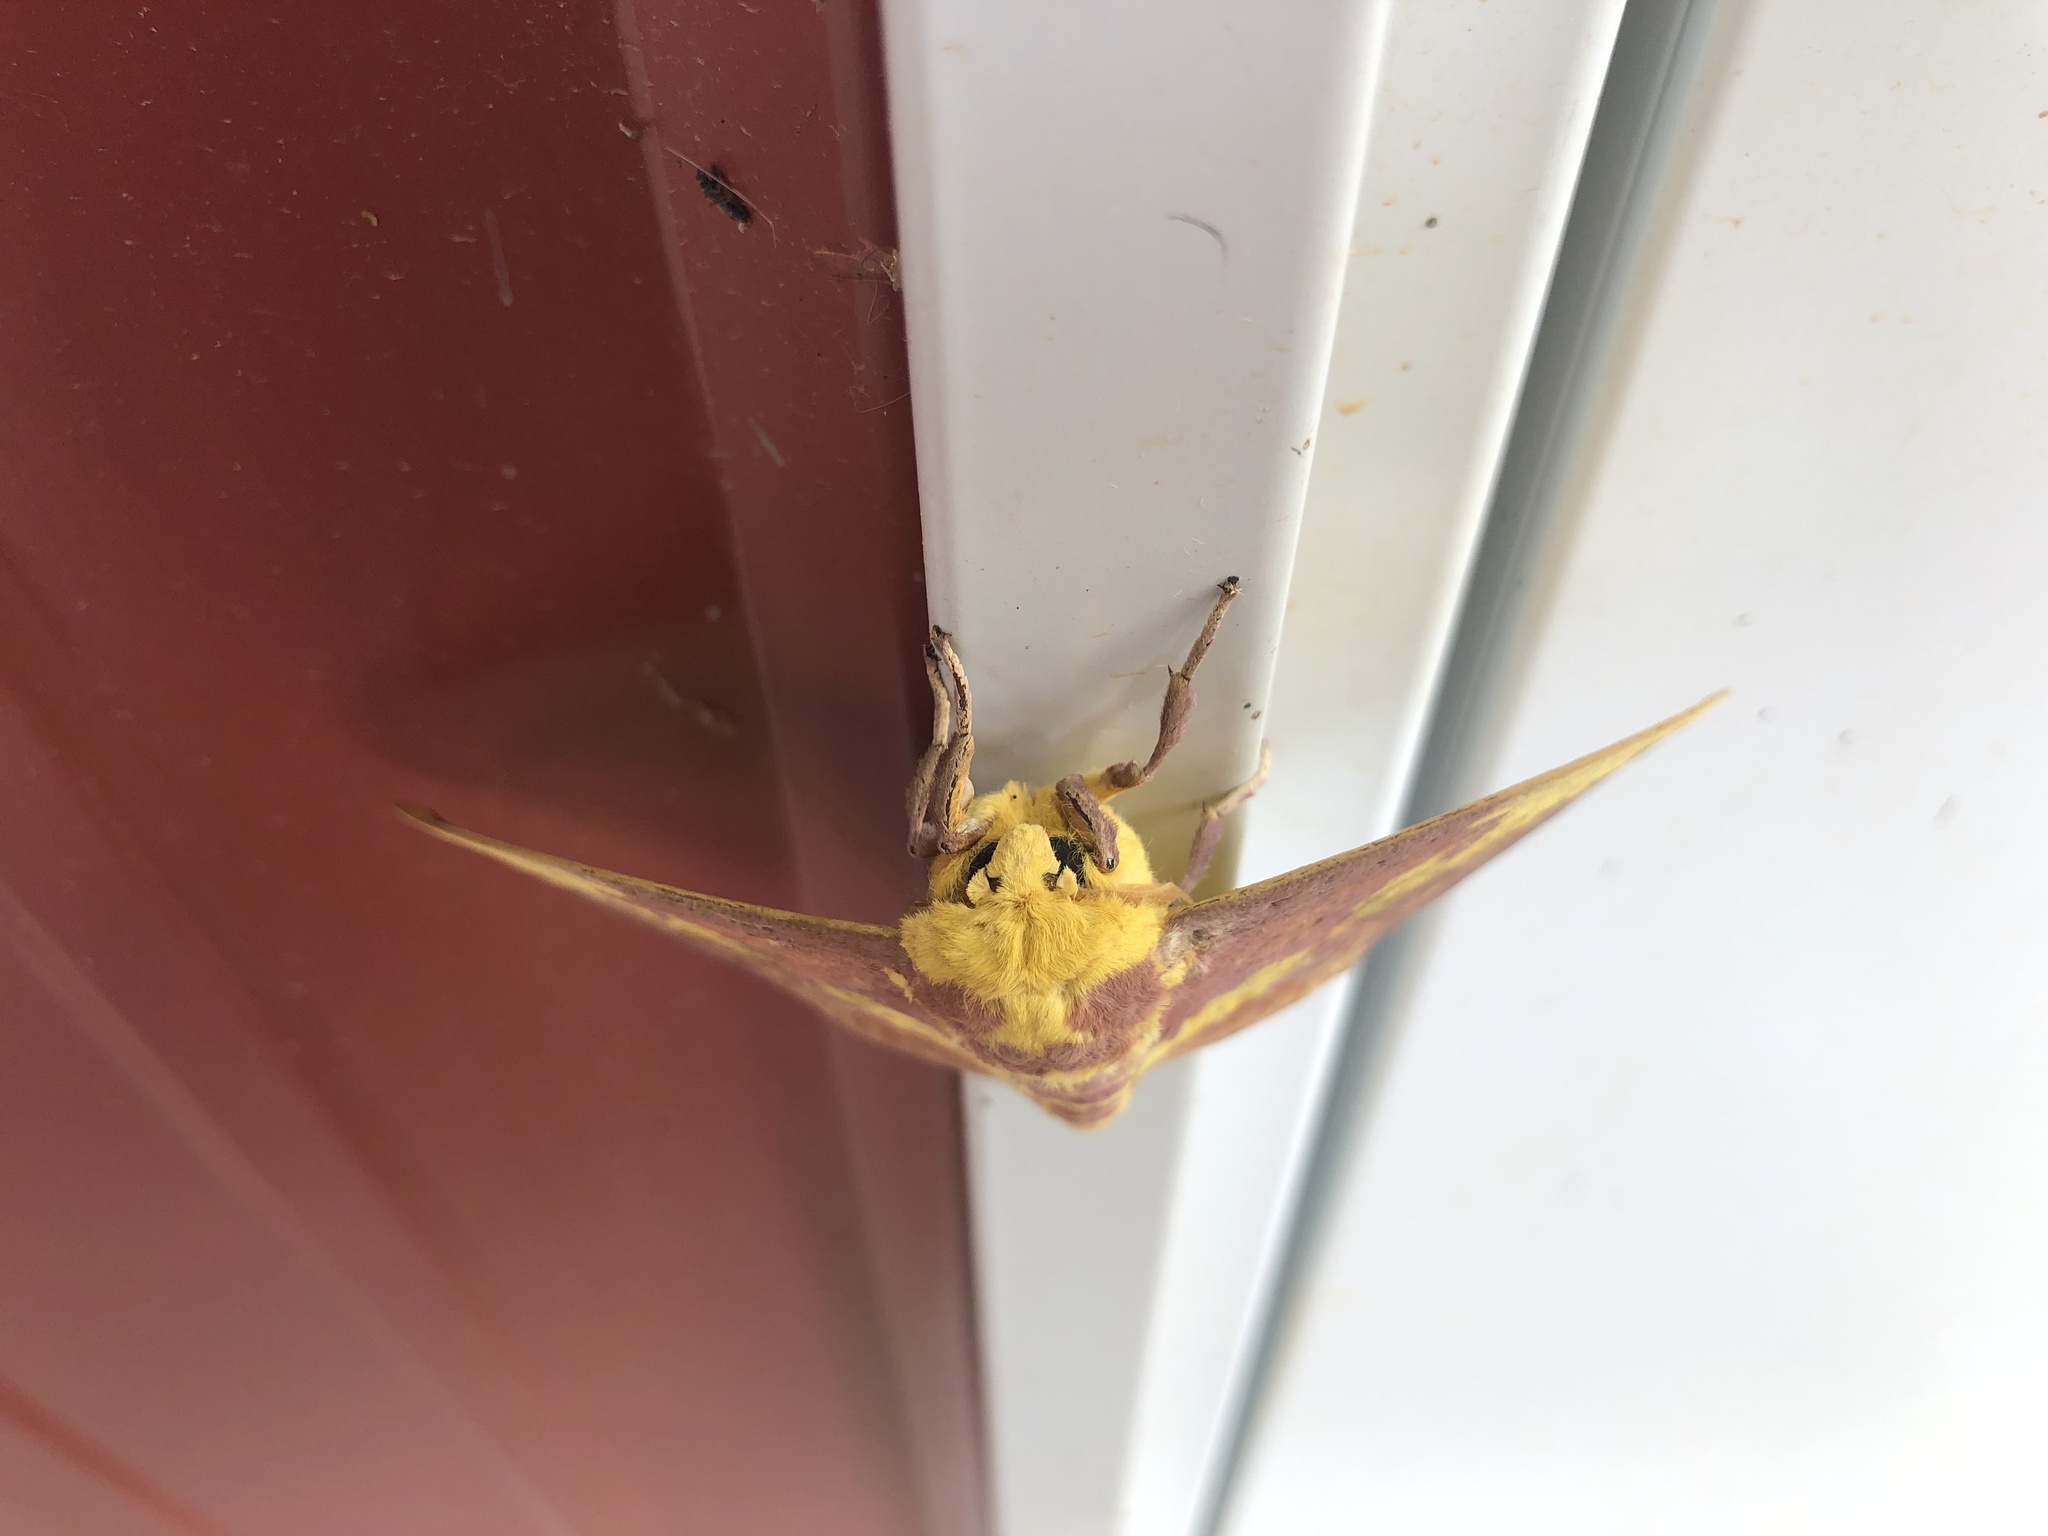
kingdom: Animalia
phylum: Arthropoda
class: Insecta
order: Lepidoptera
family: Saturniidae
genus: Eacles
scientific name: Eacles imperialis
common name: Imperial moth
